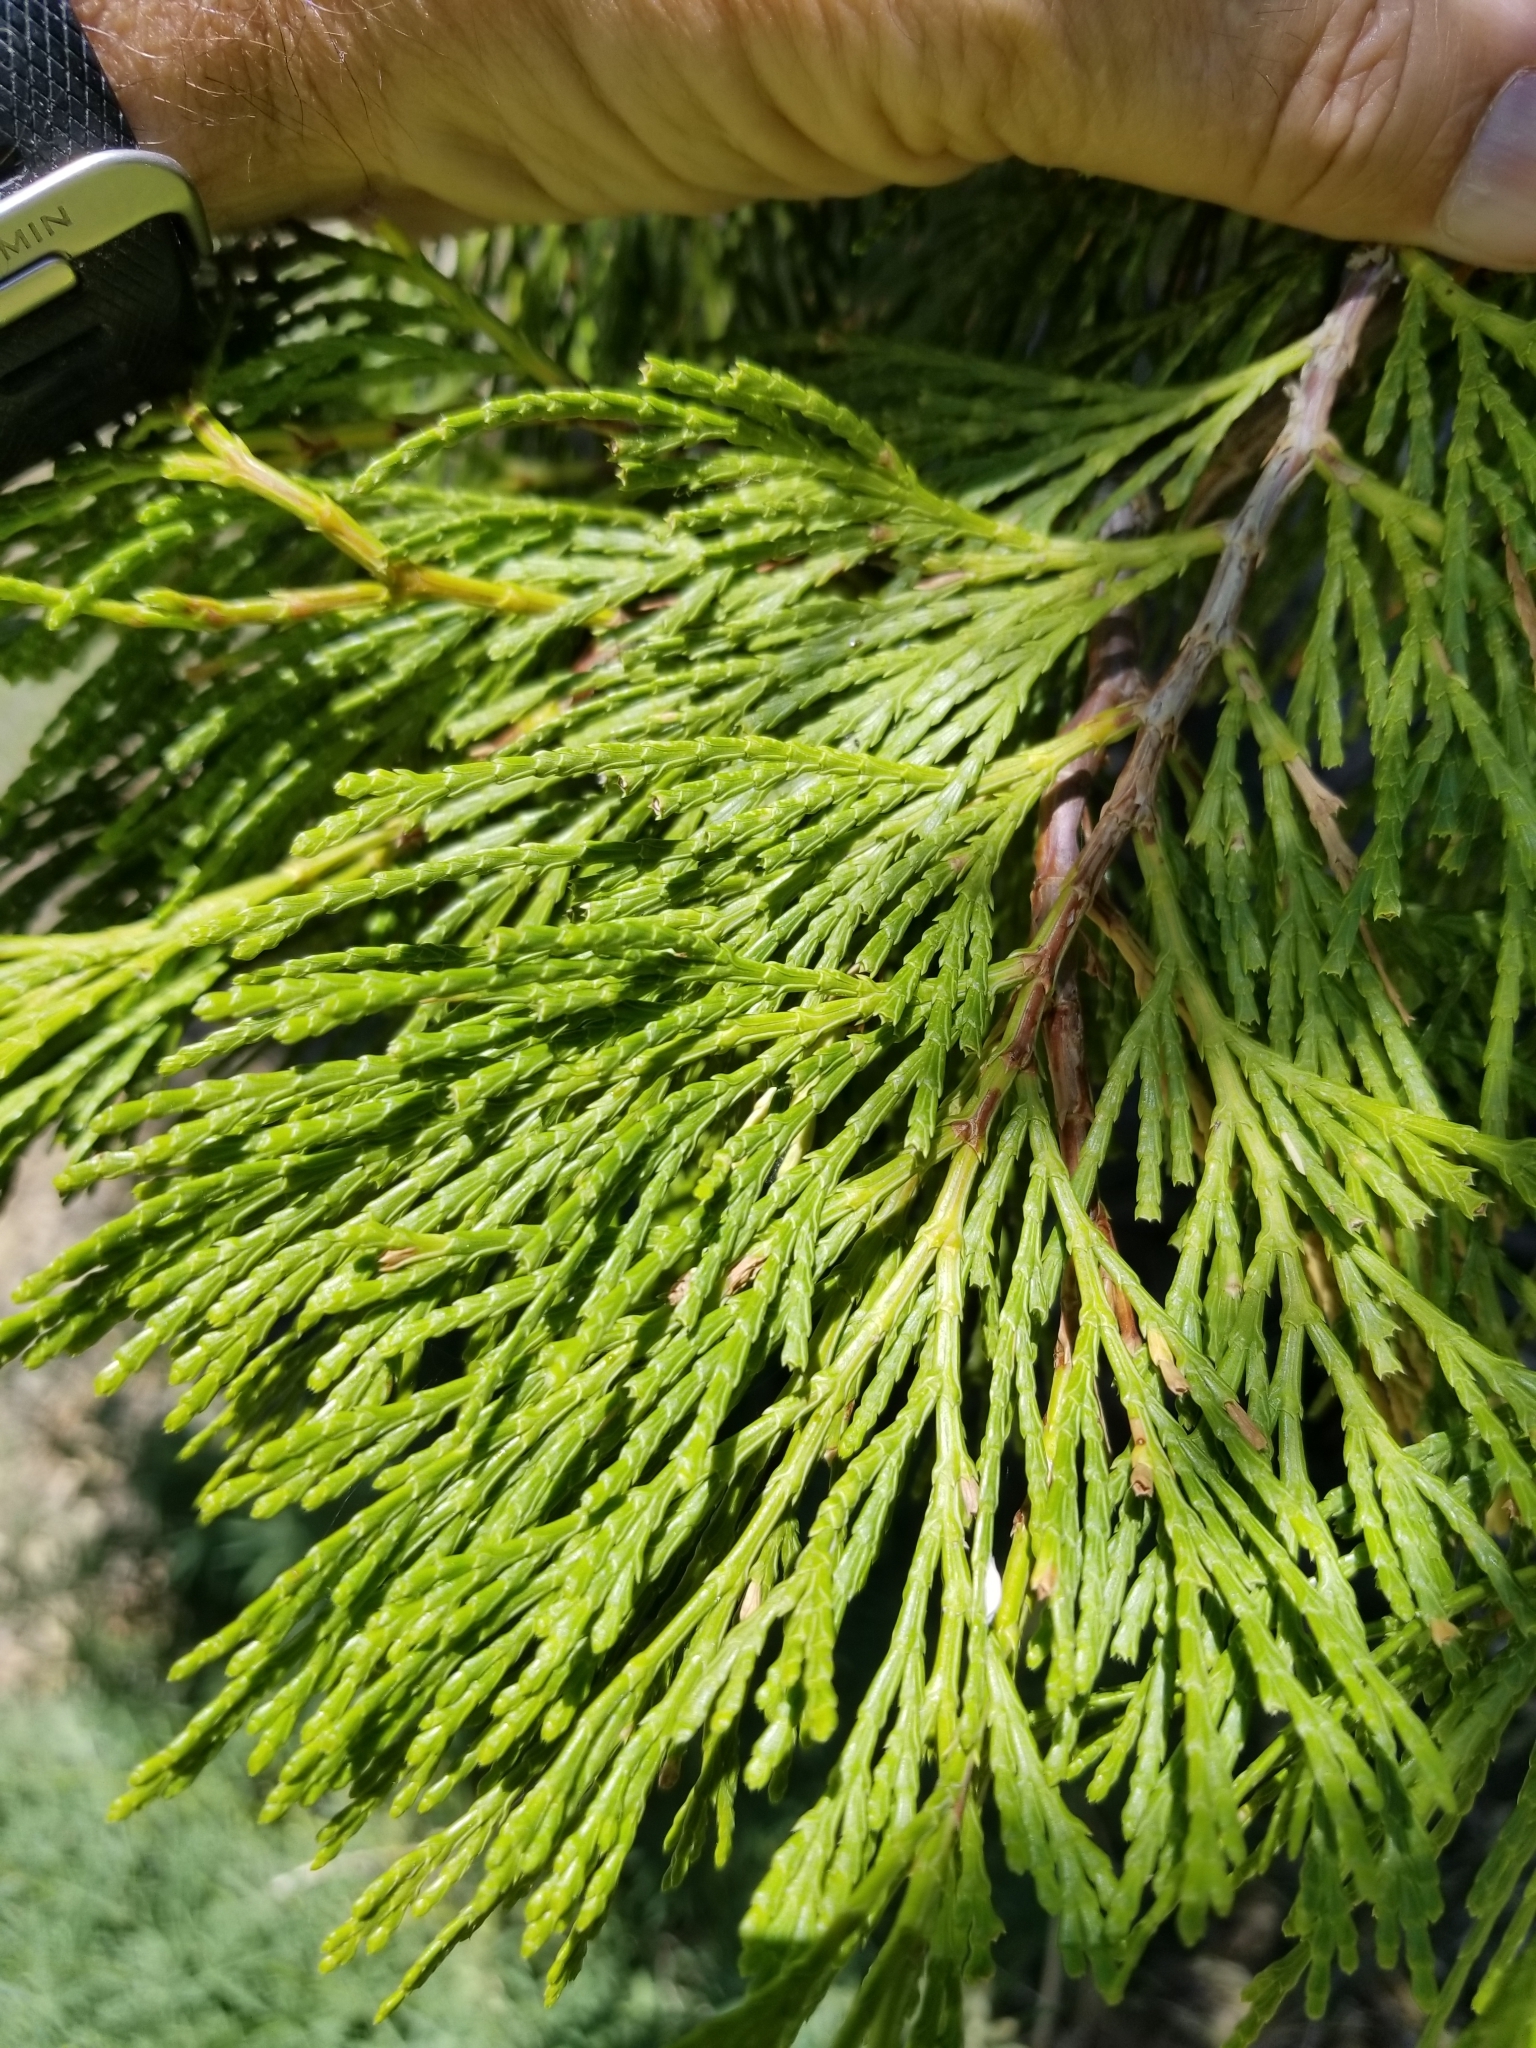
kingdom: Plantae
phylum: Tracheophyta
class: Pinopsida
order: Pinales
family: Cupressaceae
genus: Calocedrus
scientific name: Calocedrus decurrens
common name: Californian incense-cedar
